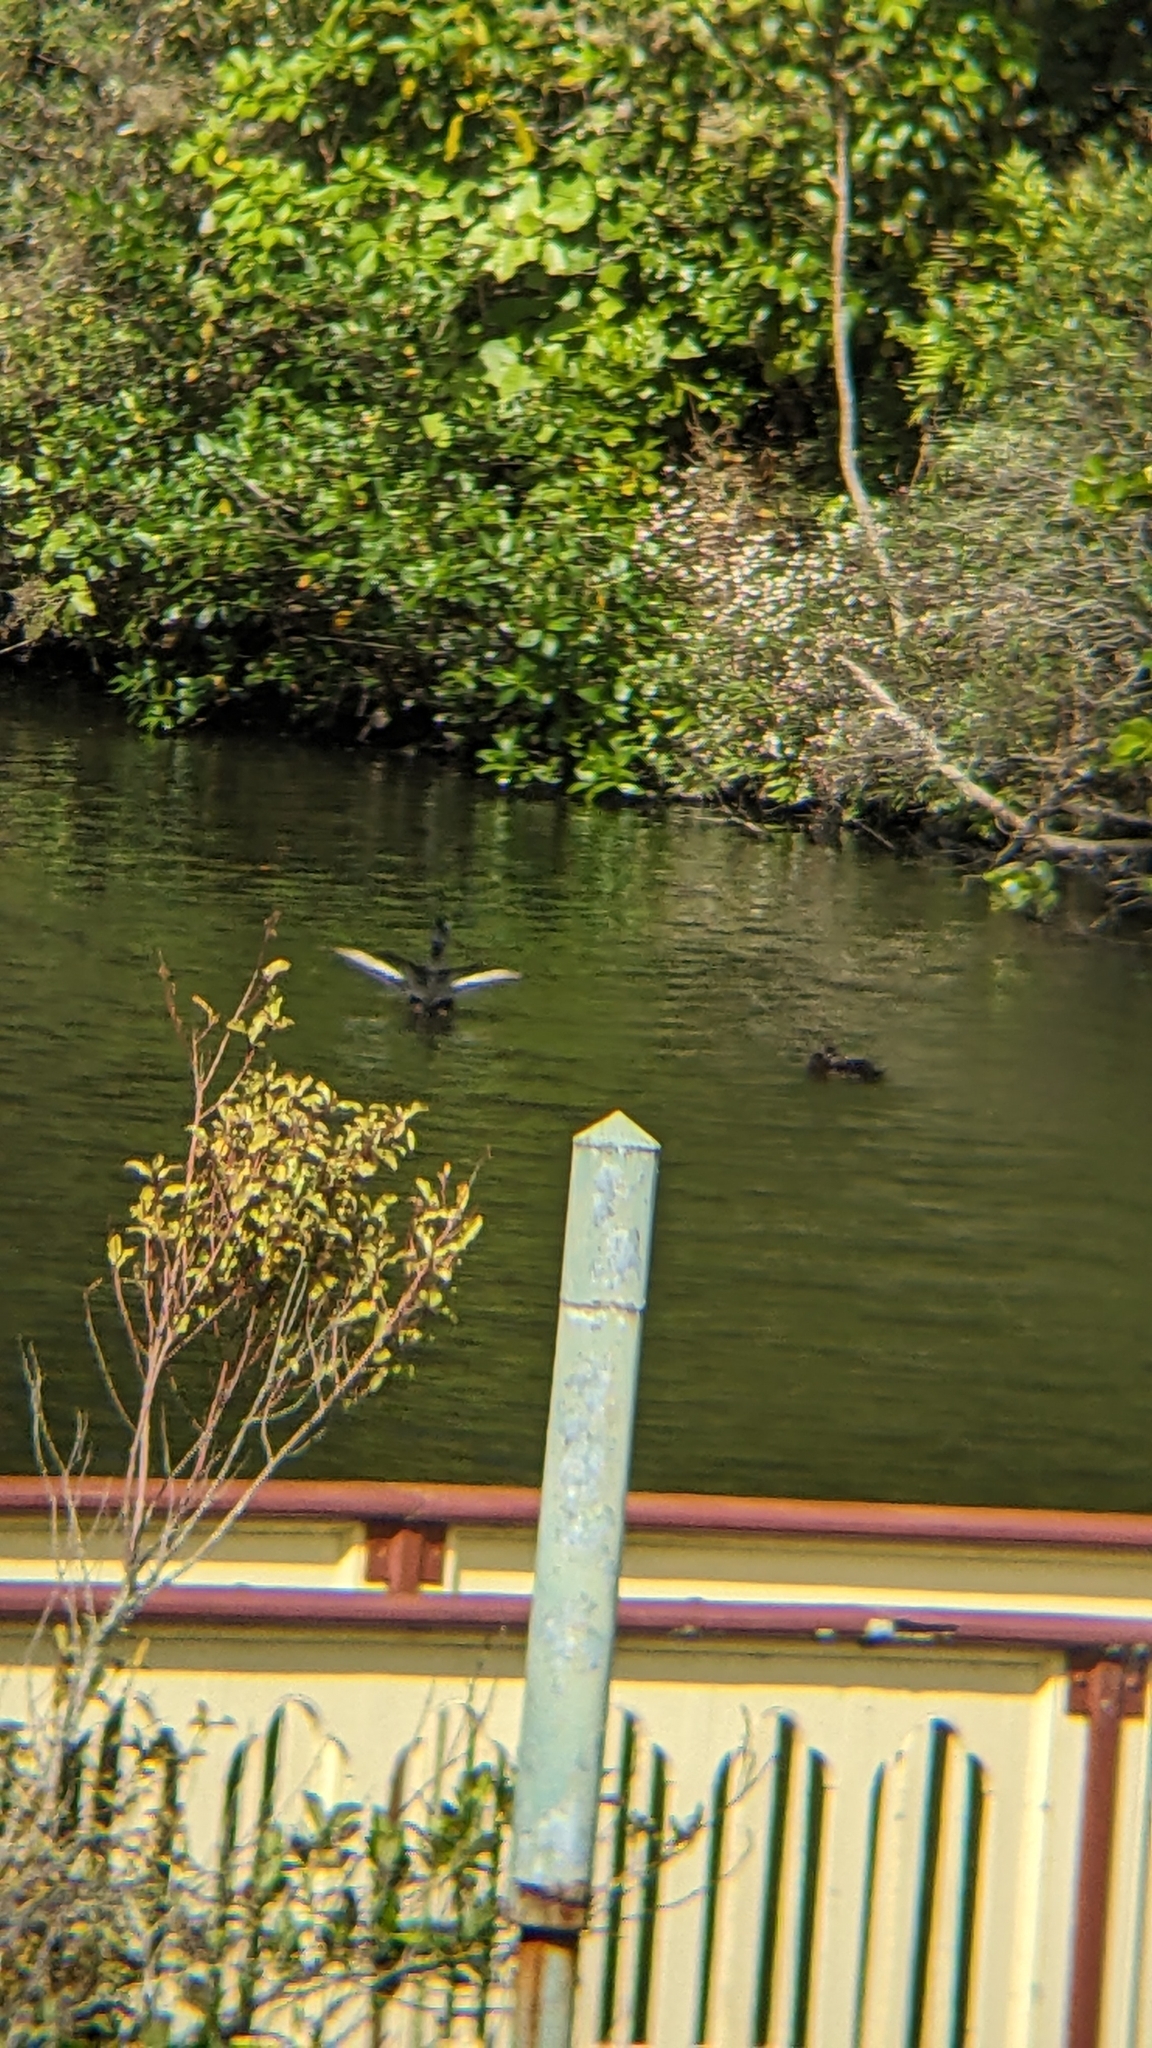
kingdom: Animalia
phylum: Chordata
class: Aves
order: Anseriformes
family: Anatidae
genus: Aythya
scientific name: Aythya novaeseelandiae
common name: New zealand scaup
